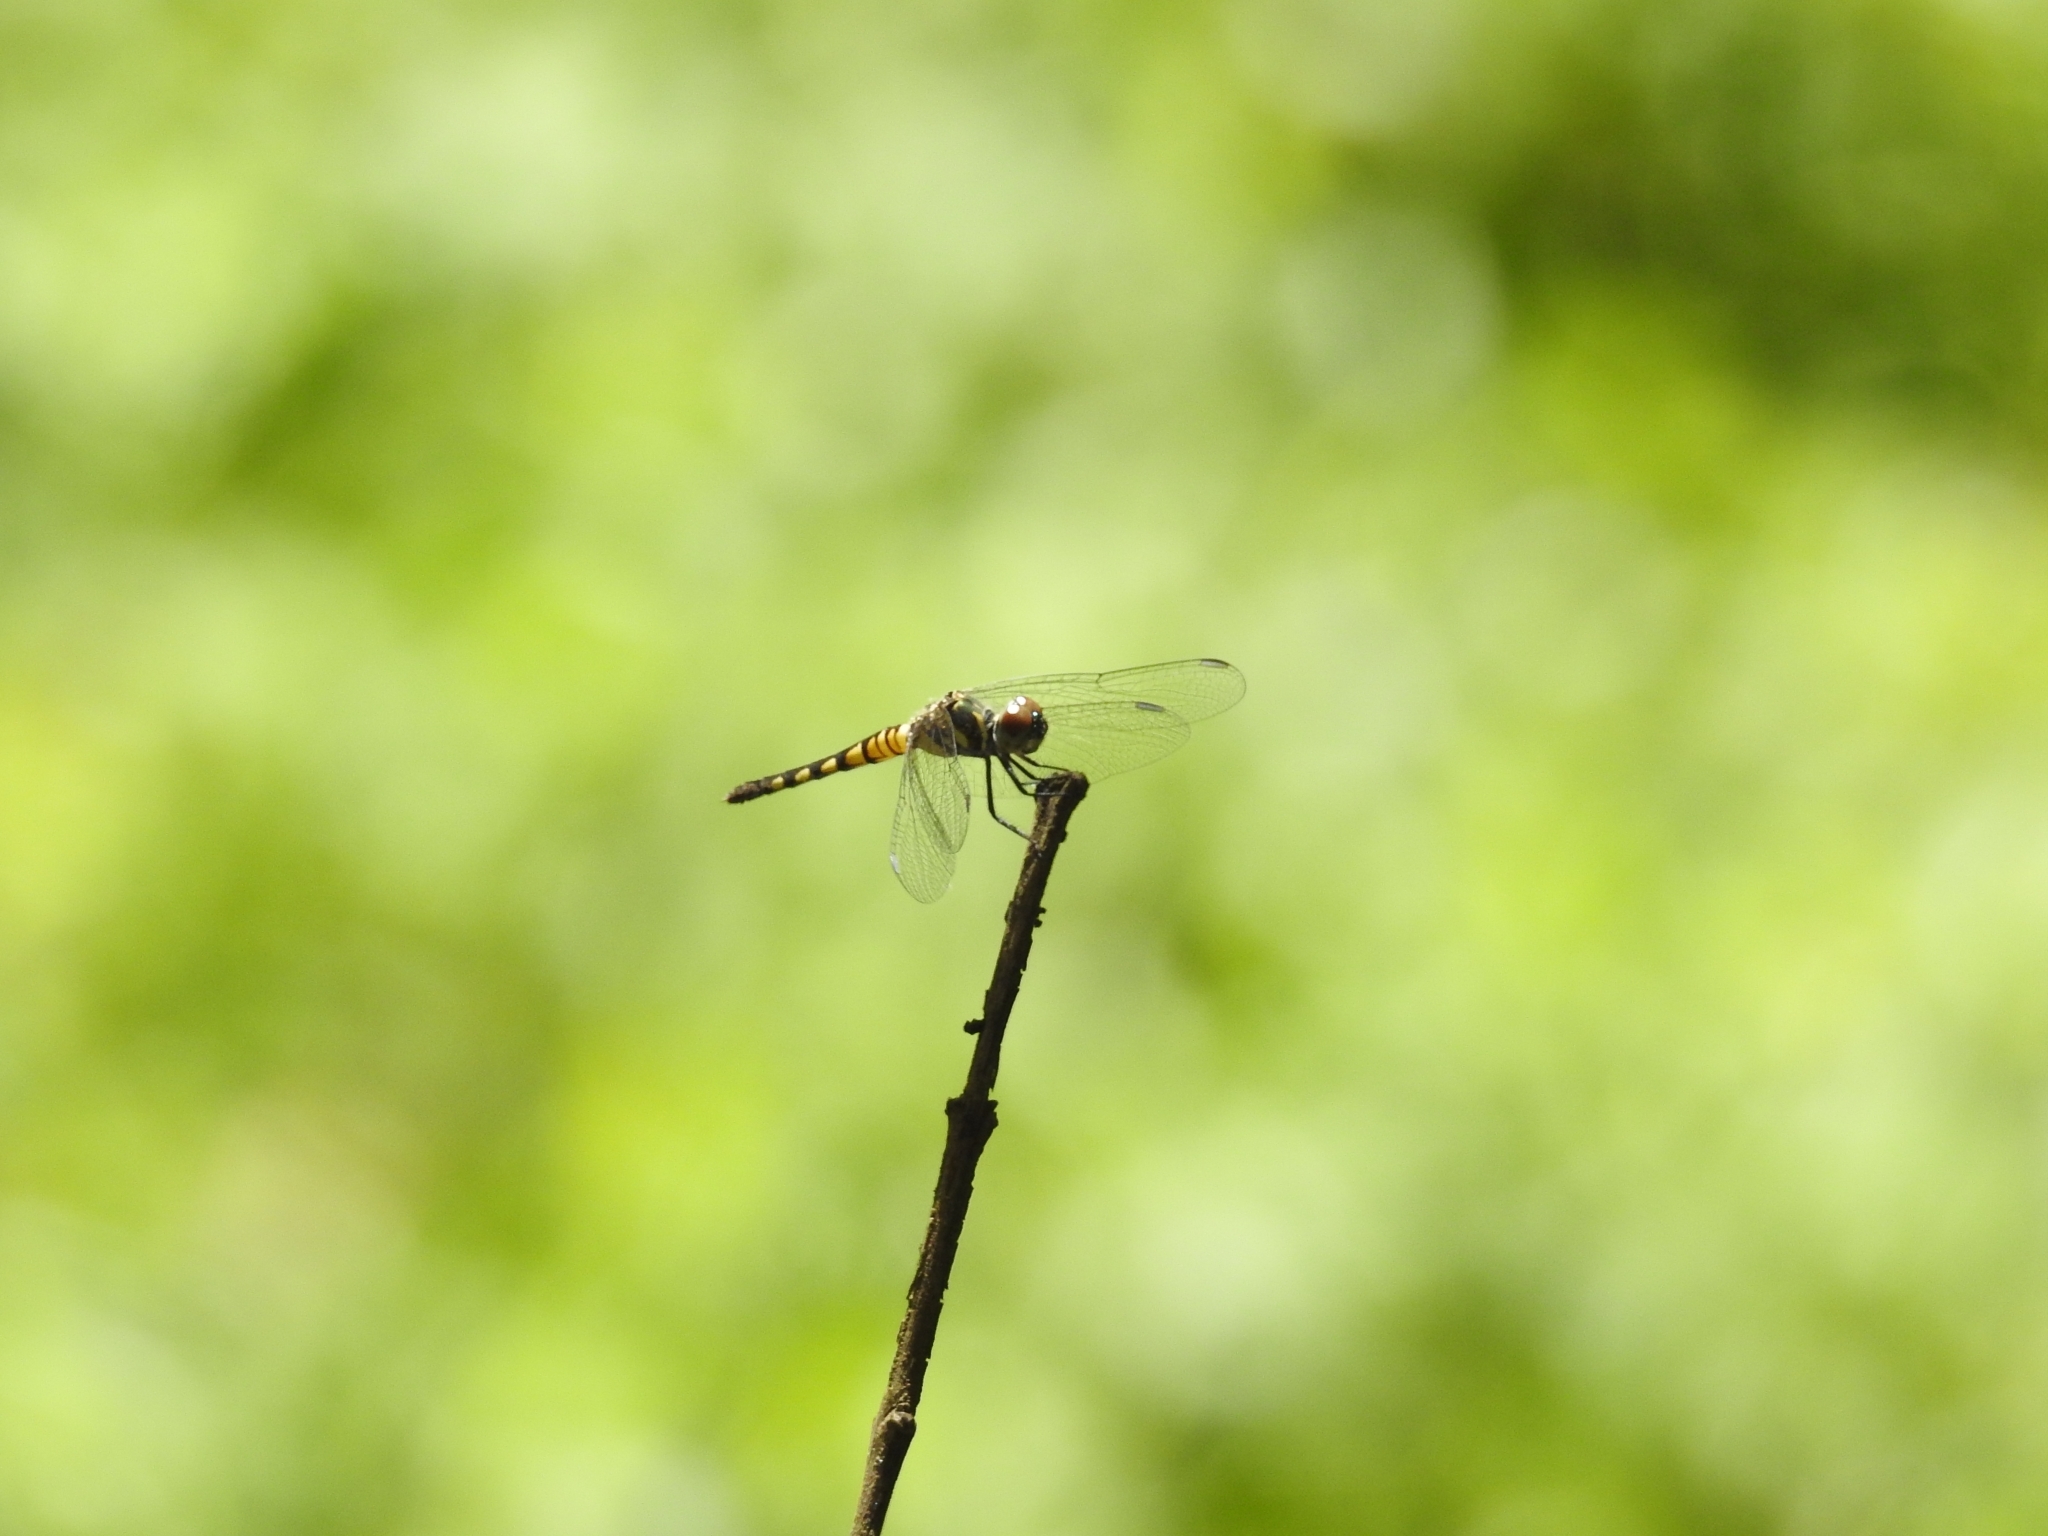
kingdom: Animalia
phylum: Arthropoda
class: Insecta
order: Odonata
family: Libellulidae
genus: Brachydiplax
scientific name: Brachydiplax sobrina
